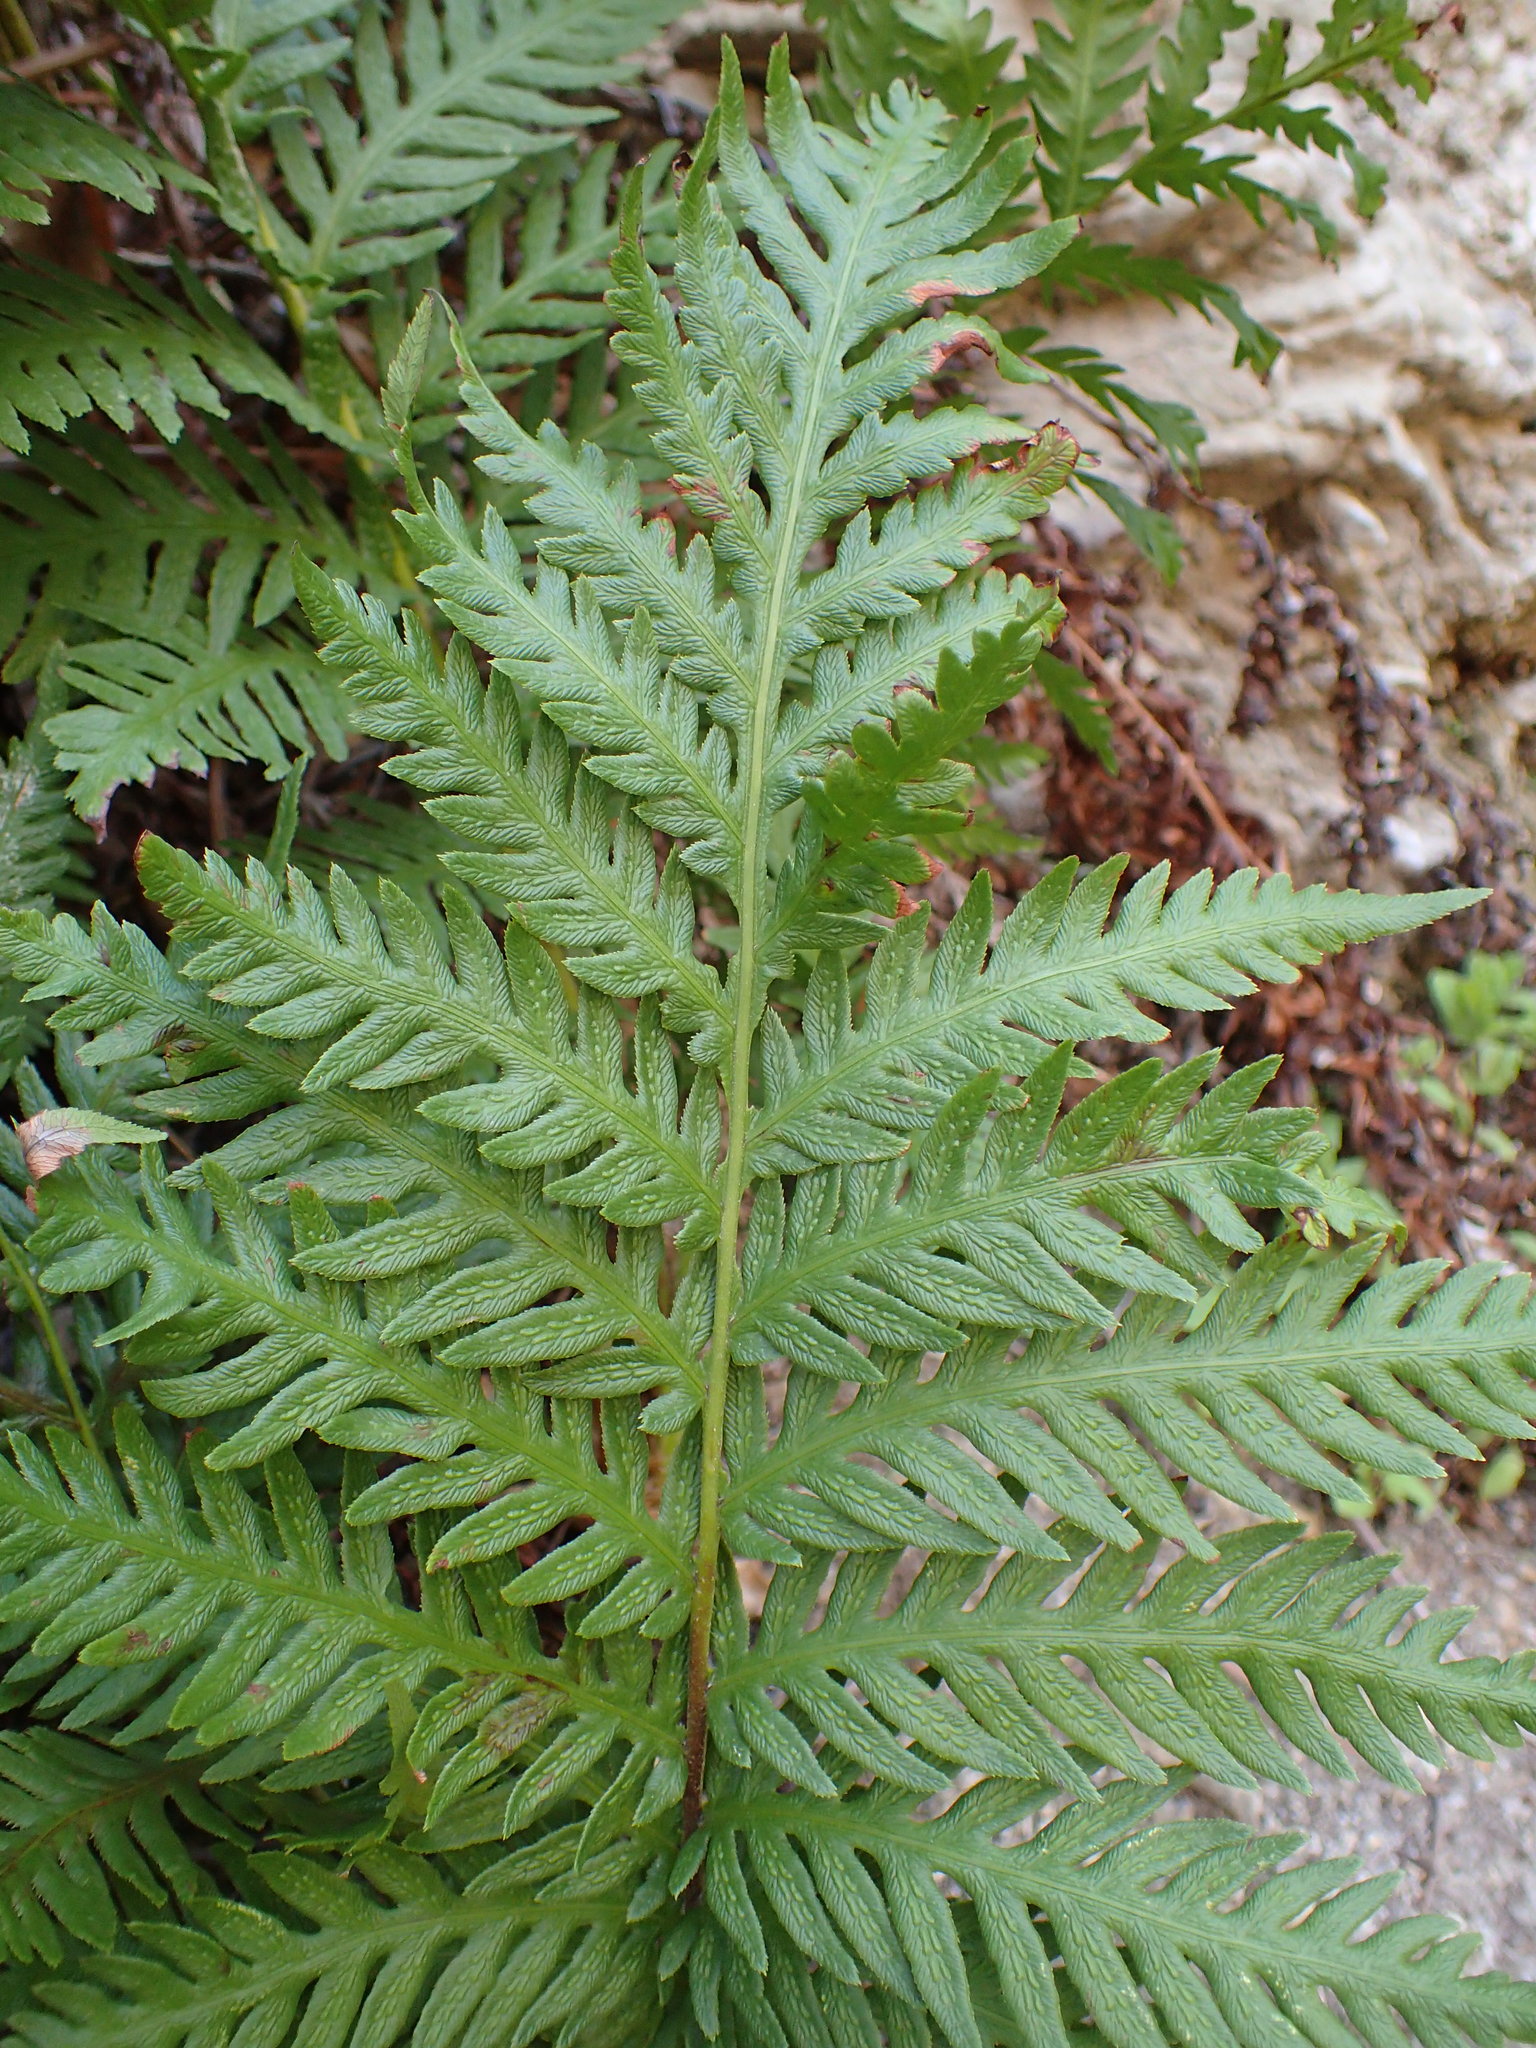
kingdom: Plantae
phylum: Tracheophyta
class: Polypodiopsida
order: Polypodiales
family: Blechnaceae
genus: Woodwardia
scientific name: Woodwardia fimbriata
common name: Giant chain fern
